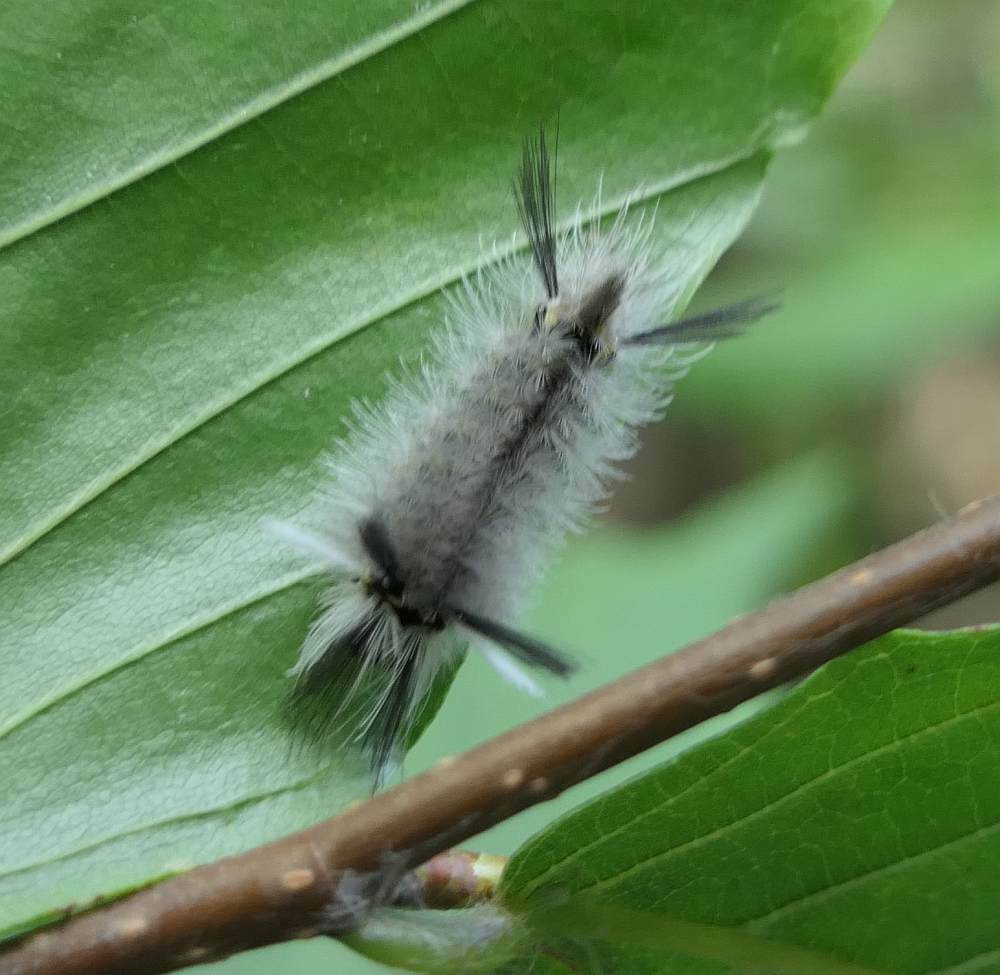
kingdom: Animalia
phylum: Arthropoda
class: Insecta
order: Lepidoptera
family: Erebidae
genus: Halysidota
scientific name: Halysidota tessellaris
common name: Banded tussock moth
